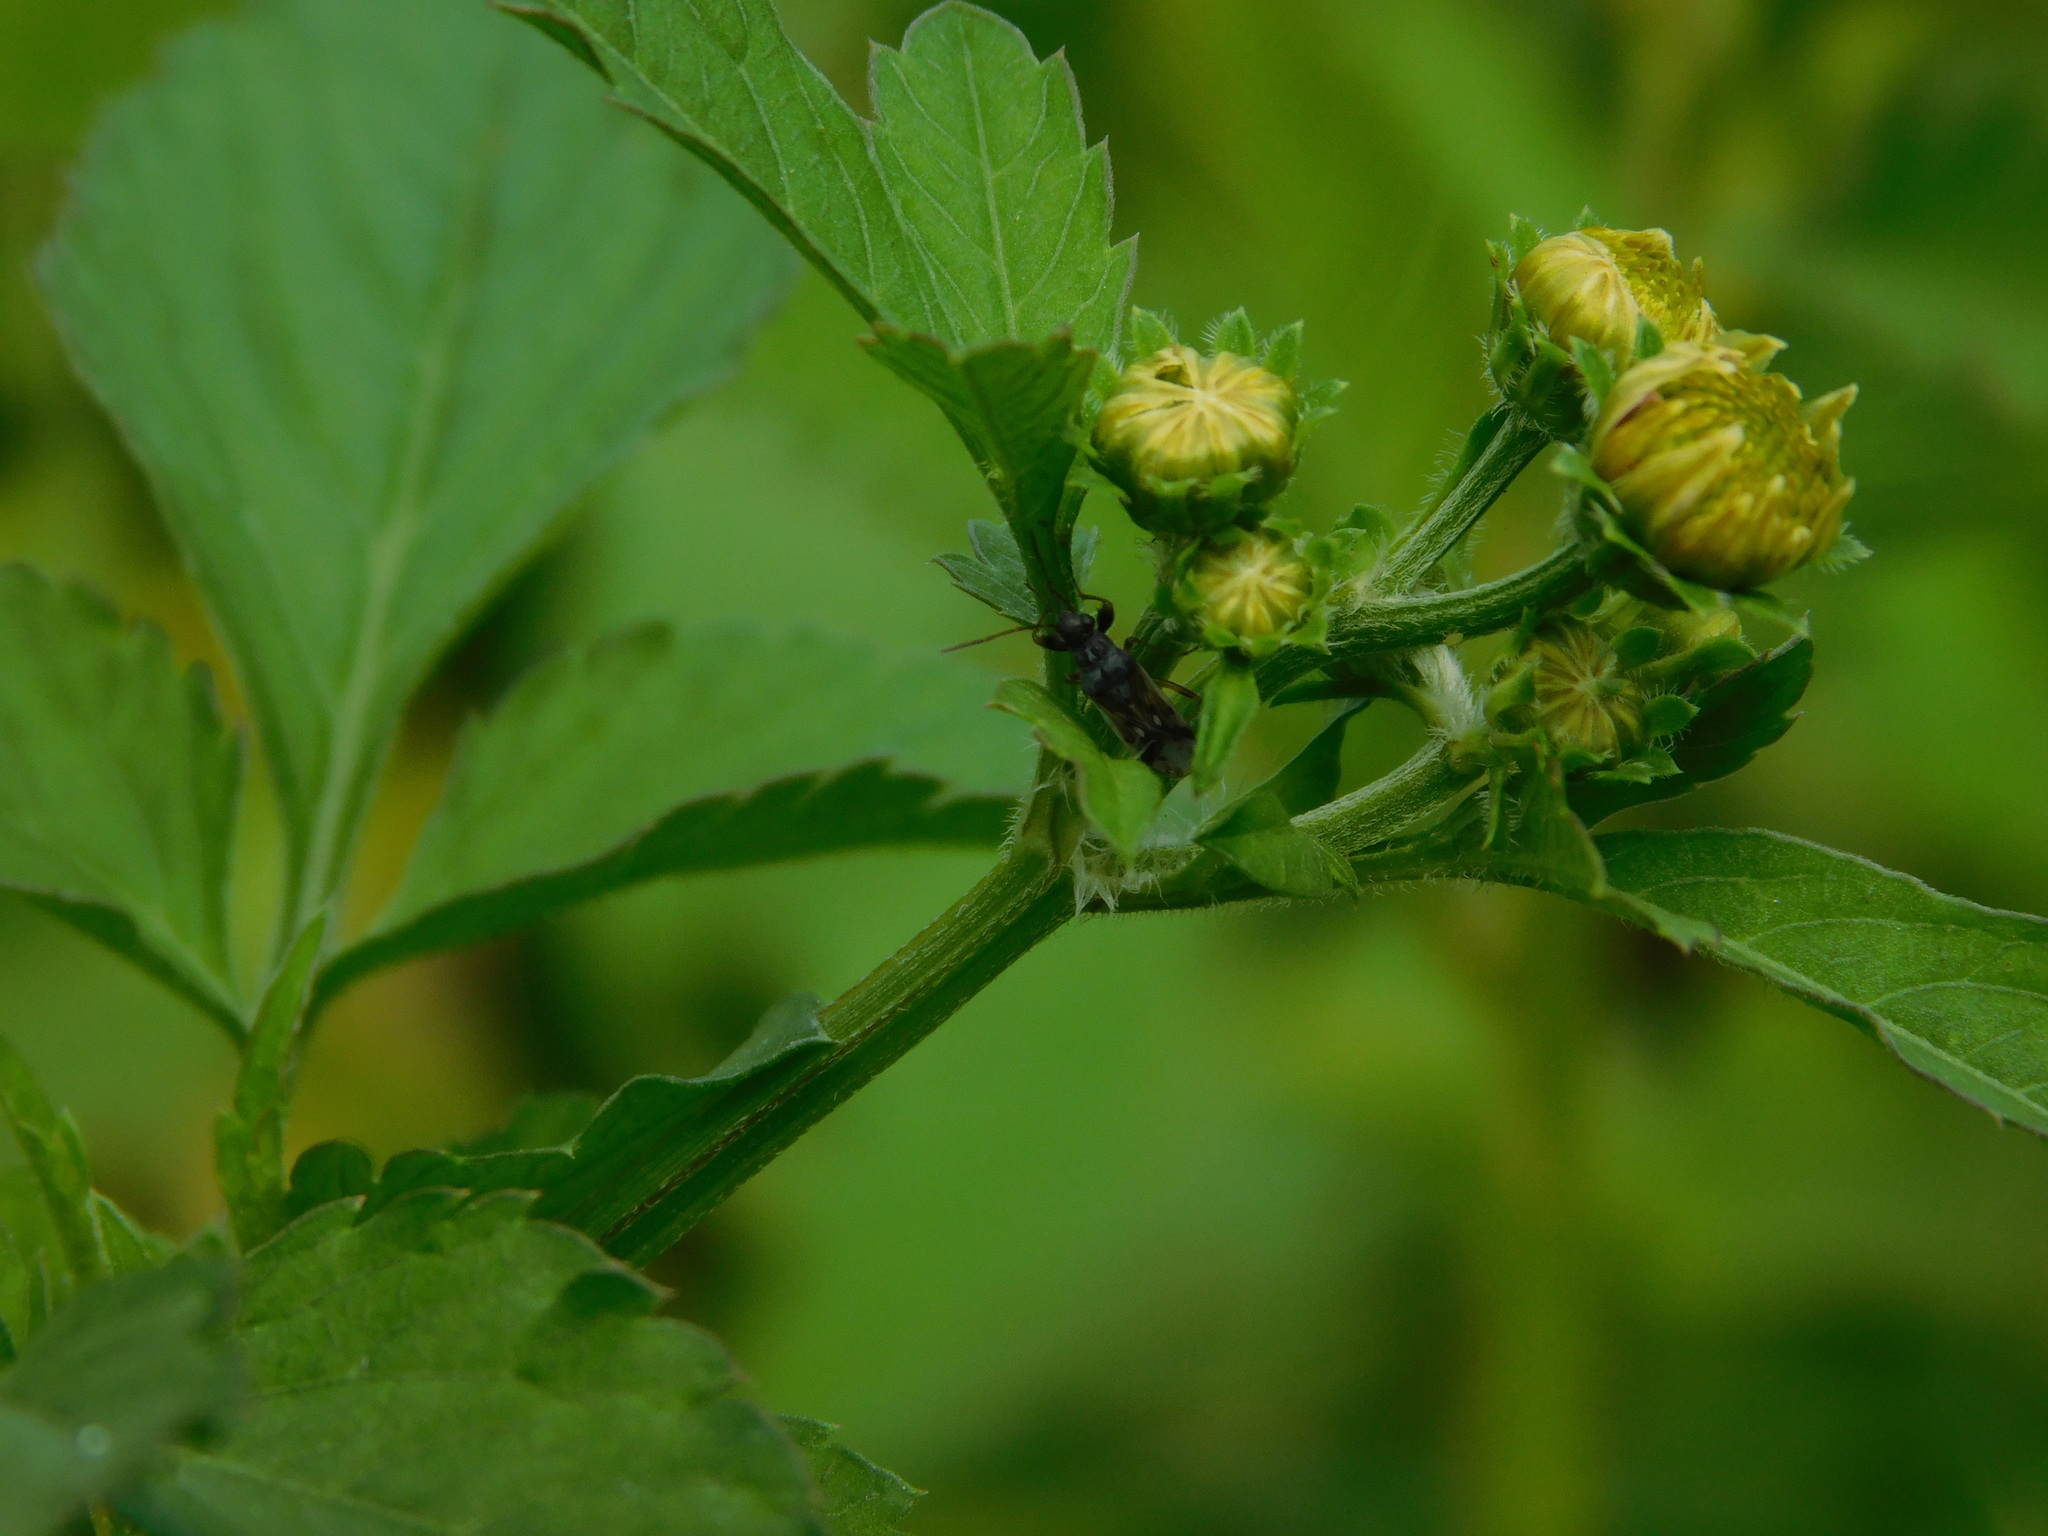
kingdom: Animalia
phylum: Arthropoda
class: Insecta
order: Hemiptera
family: Rhyparochromidae
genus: Pseudopachybrachius
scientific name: Pseudopachybrachius guttus
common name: Seed bug
